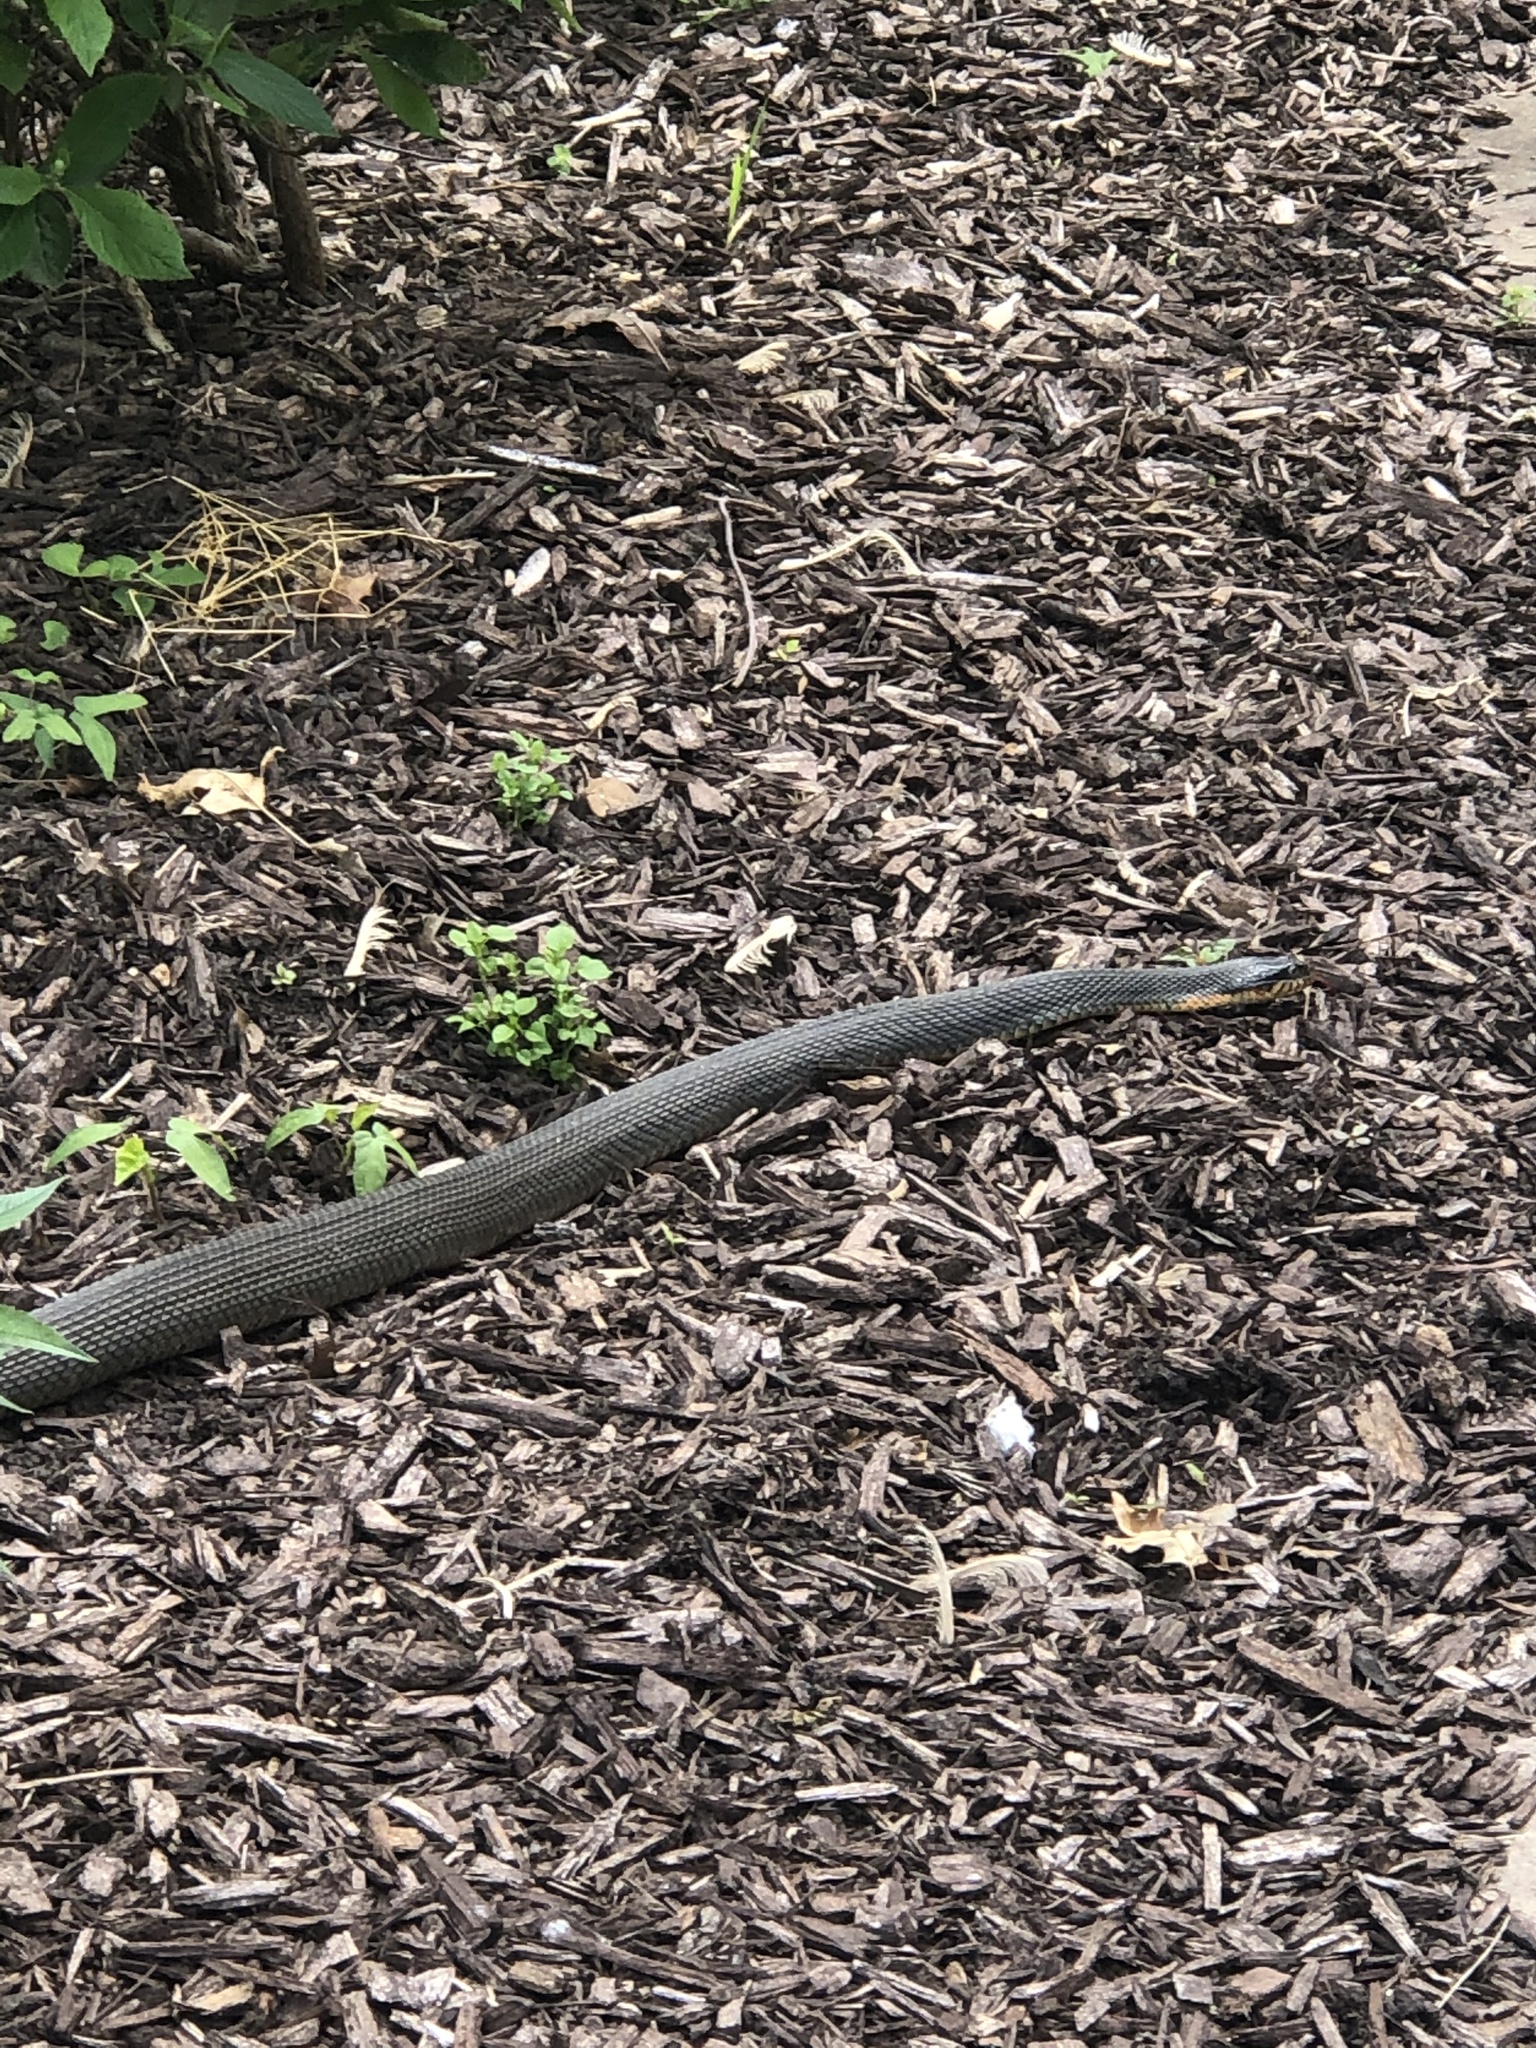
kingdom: Animalia
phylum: Chordata
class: Squamata
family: Colubridae
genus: Nerodia
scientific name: Nerodia erythrogaster
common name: Plainbelly water snake
